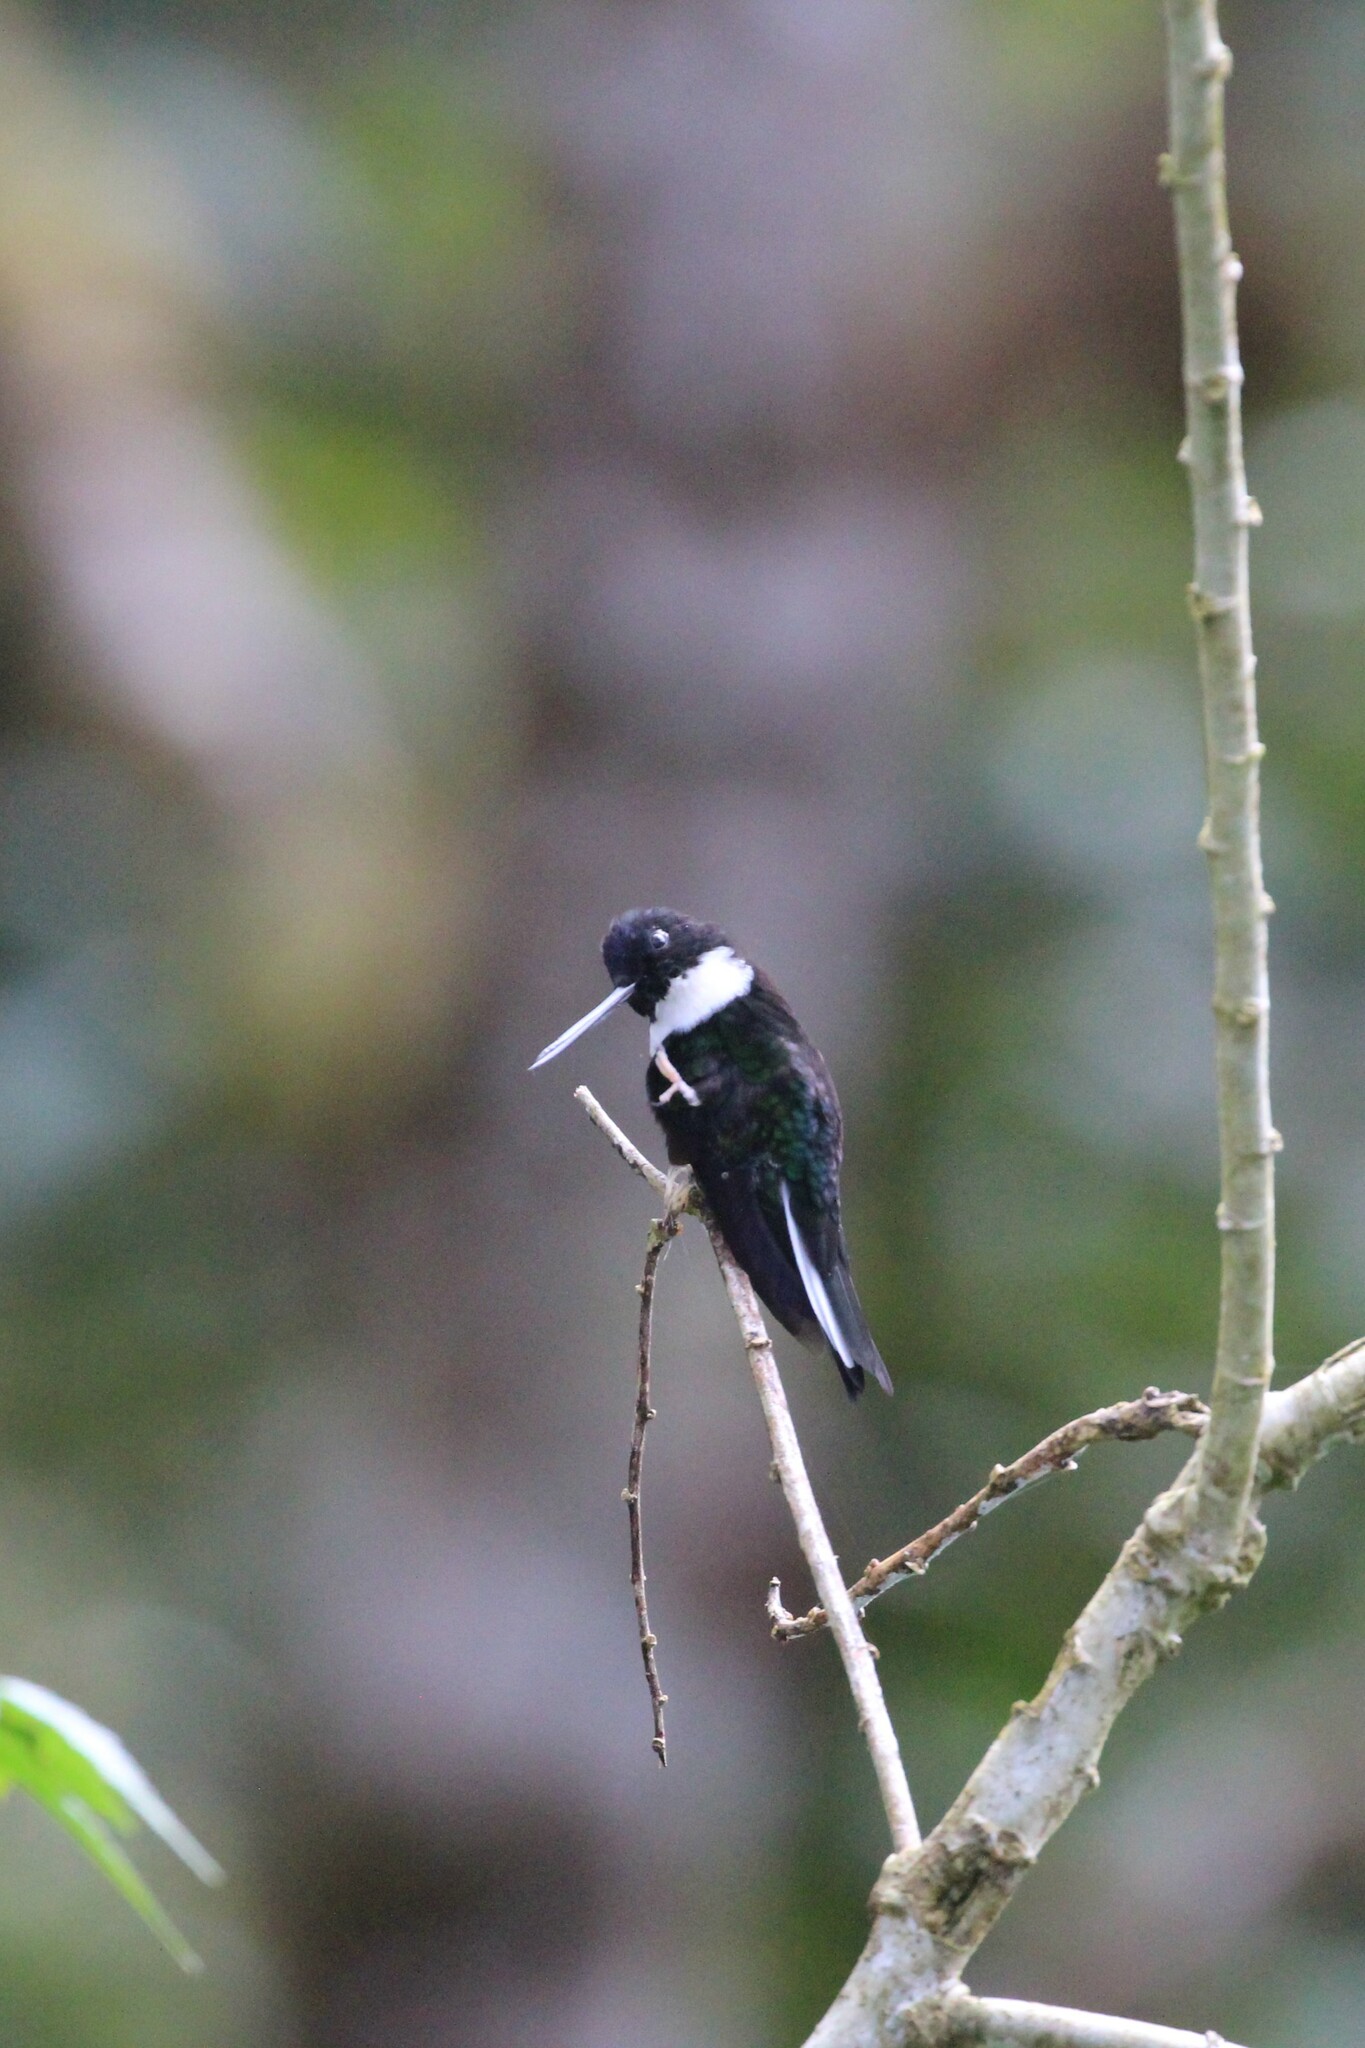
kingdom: Animalia
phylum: Chordata
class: Aves
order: Apodiformes
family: Trochilidae
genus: Coeligena
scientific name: Coeligena torquata
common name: Collared inca
